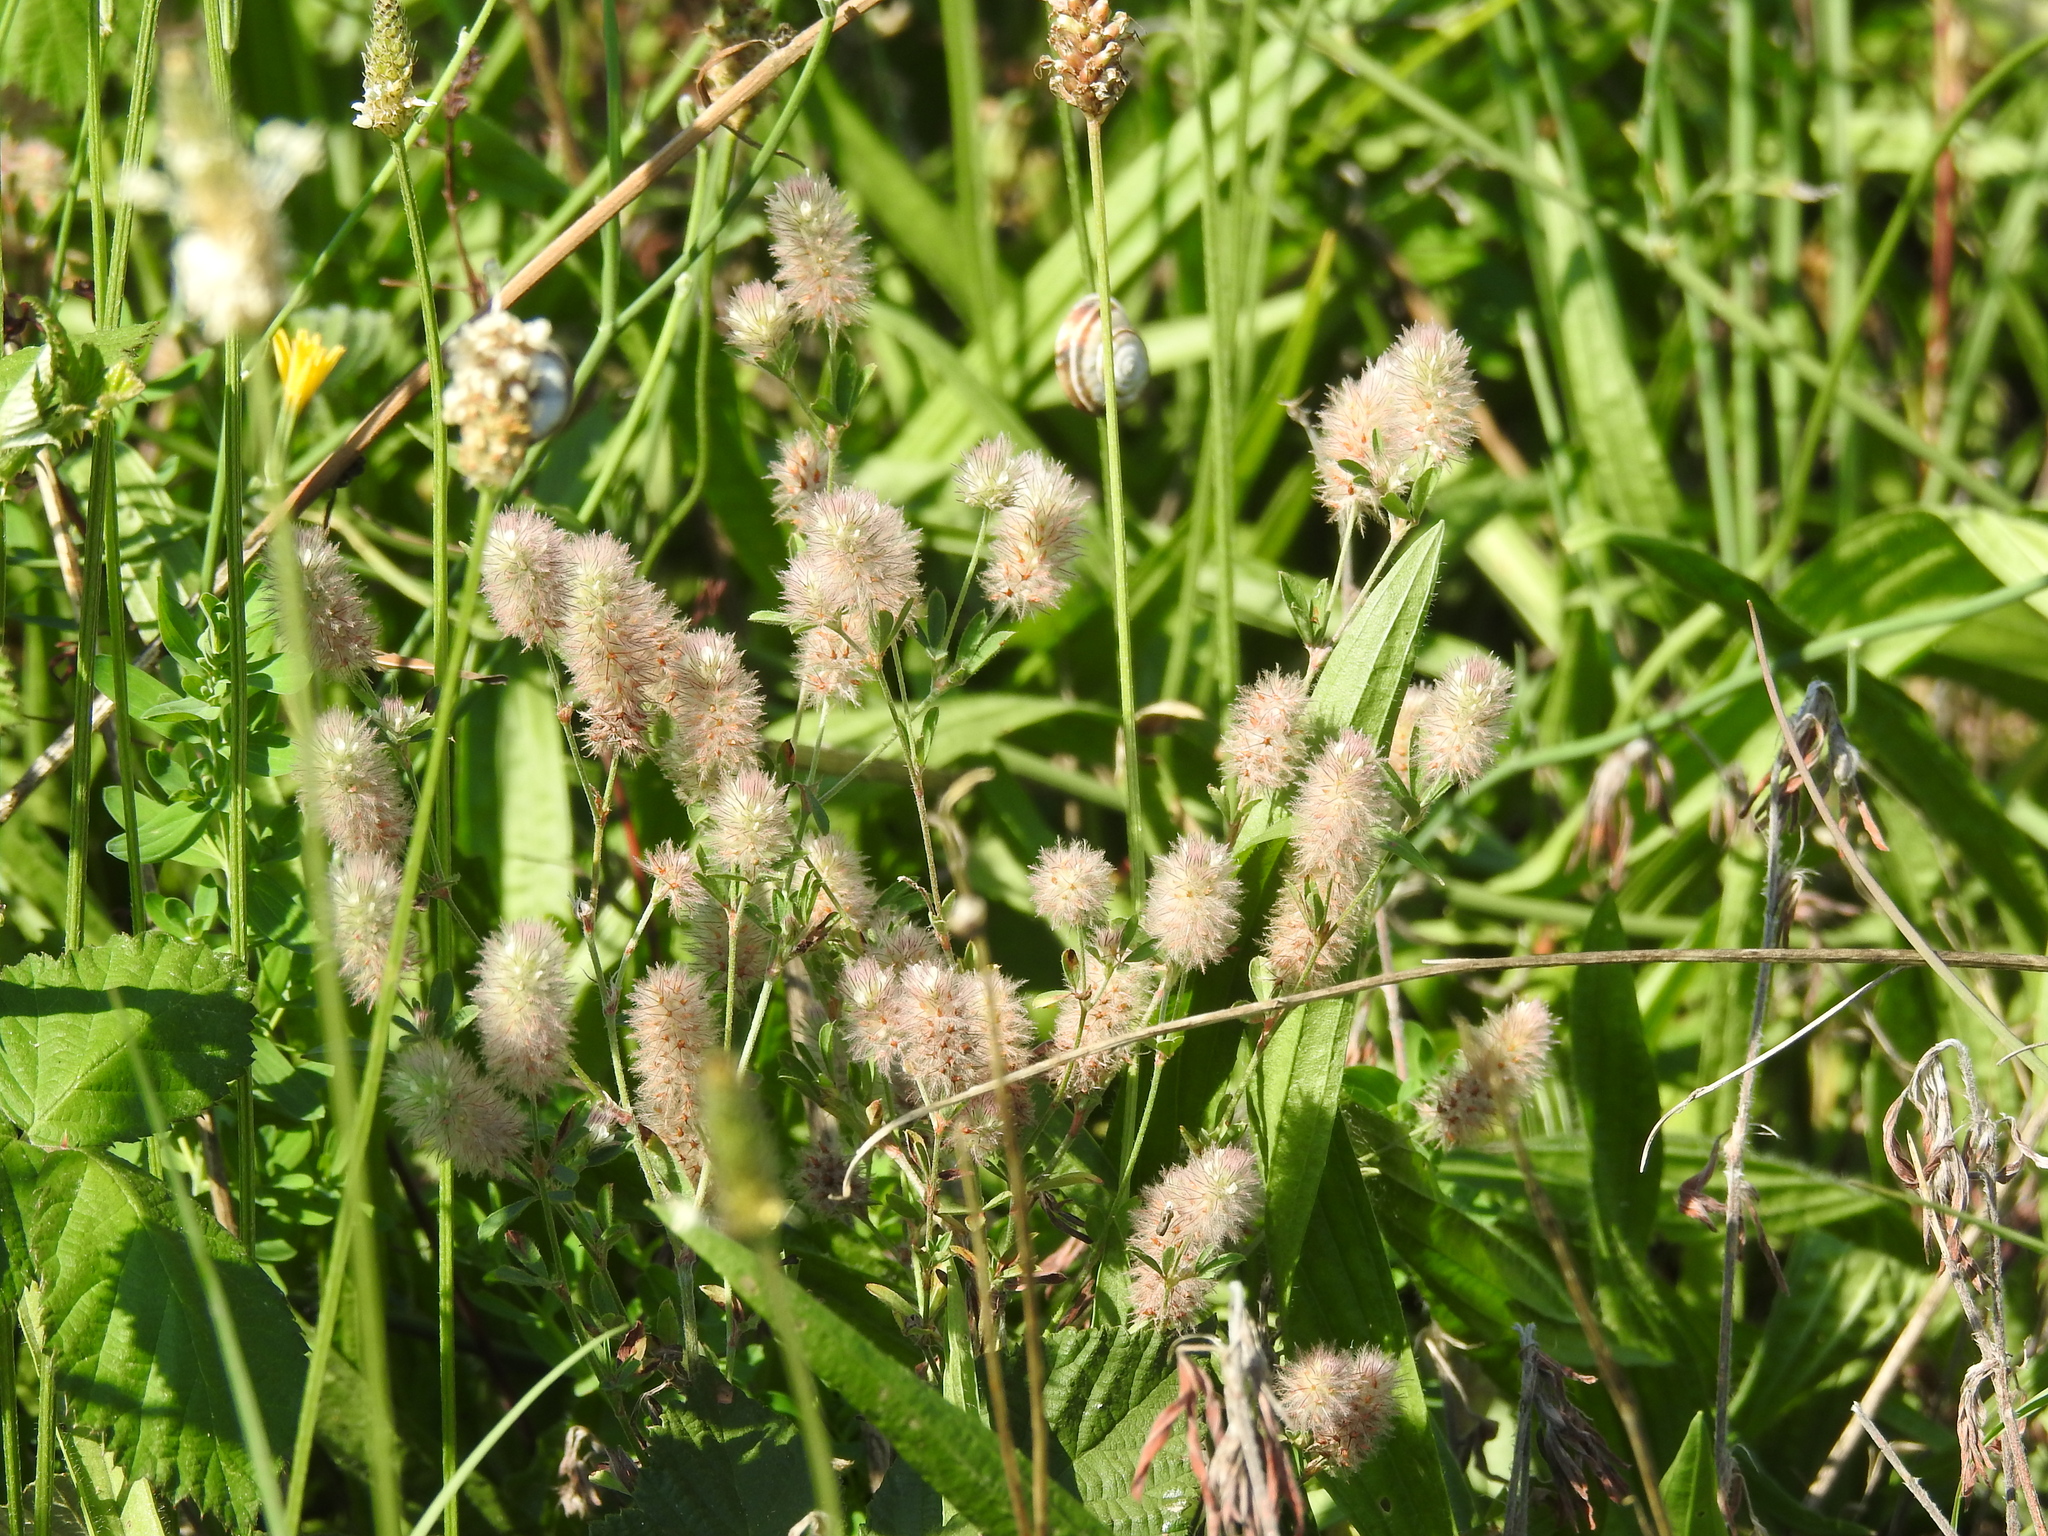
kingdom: Plantae
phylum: Tracheophyta
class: Magnoliopsida
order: Fabales
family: Fabaceae
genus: Trifolium
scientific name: Trifolium arvense
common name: Hare's-foot clover
